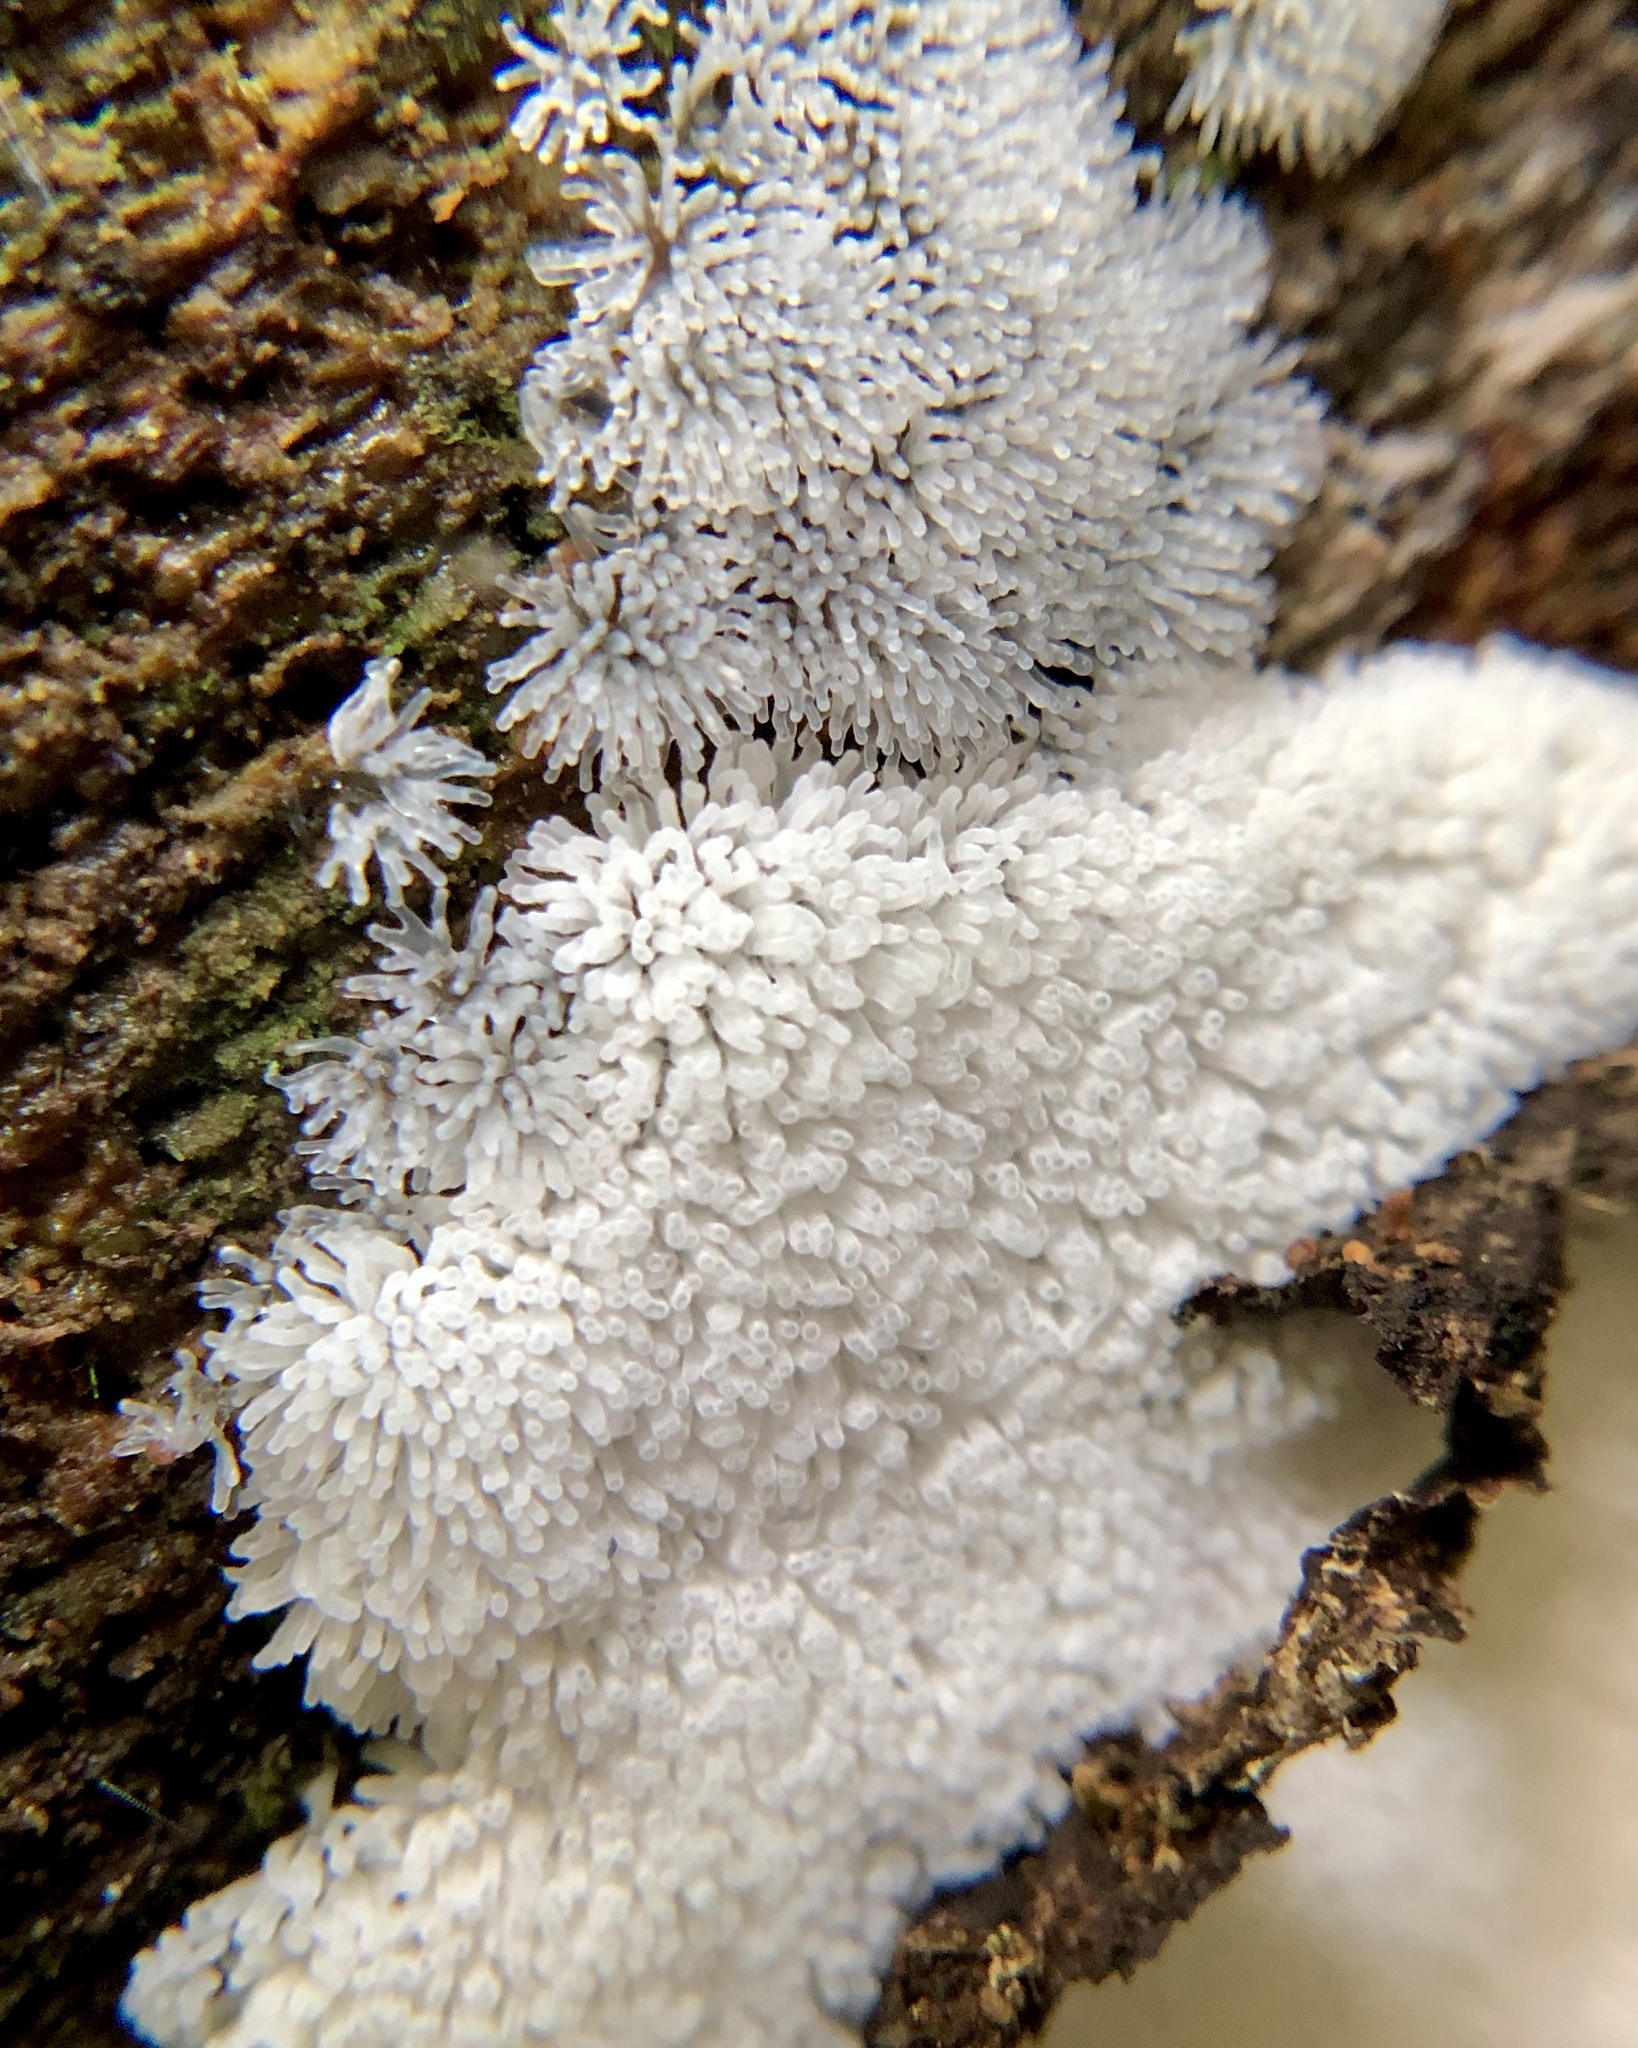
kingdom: Protozoa
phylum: Mycetozoa
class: Protosteliomycetes
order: Ceratiomyxales
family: Ceratiomyxaceae
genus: Ceratiomyxa
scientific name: Ceratiomyxa fruticulosa
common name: Honeycomb coral slime mold
